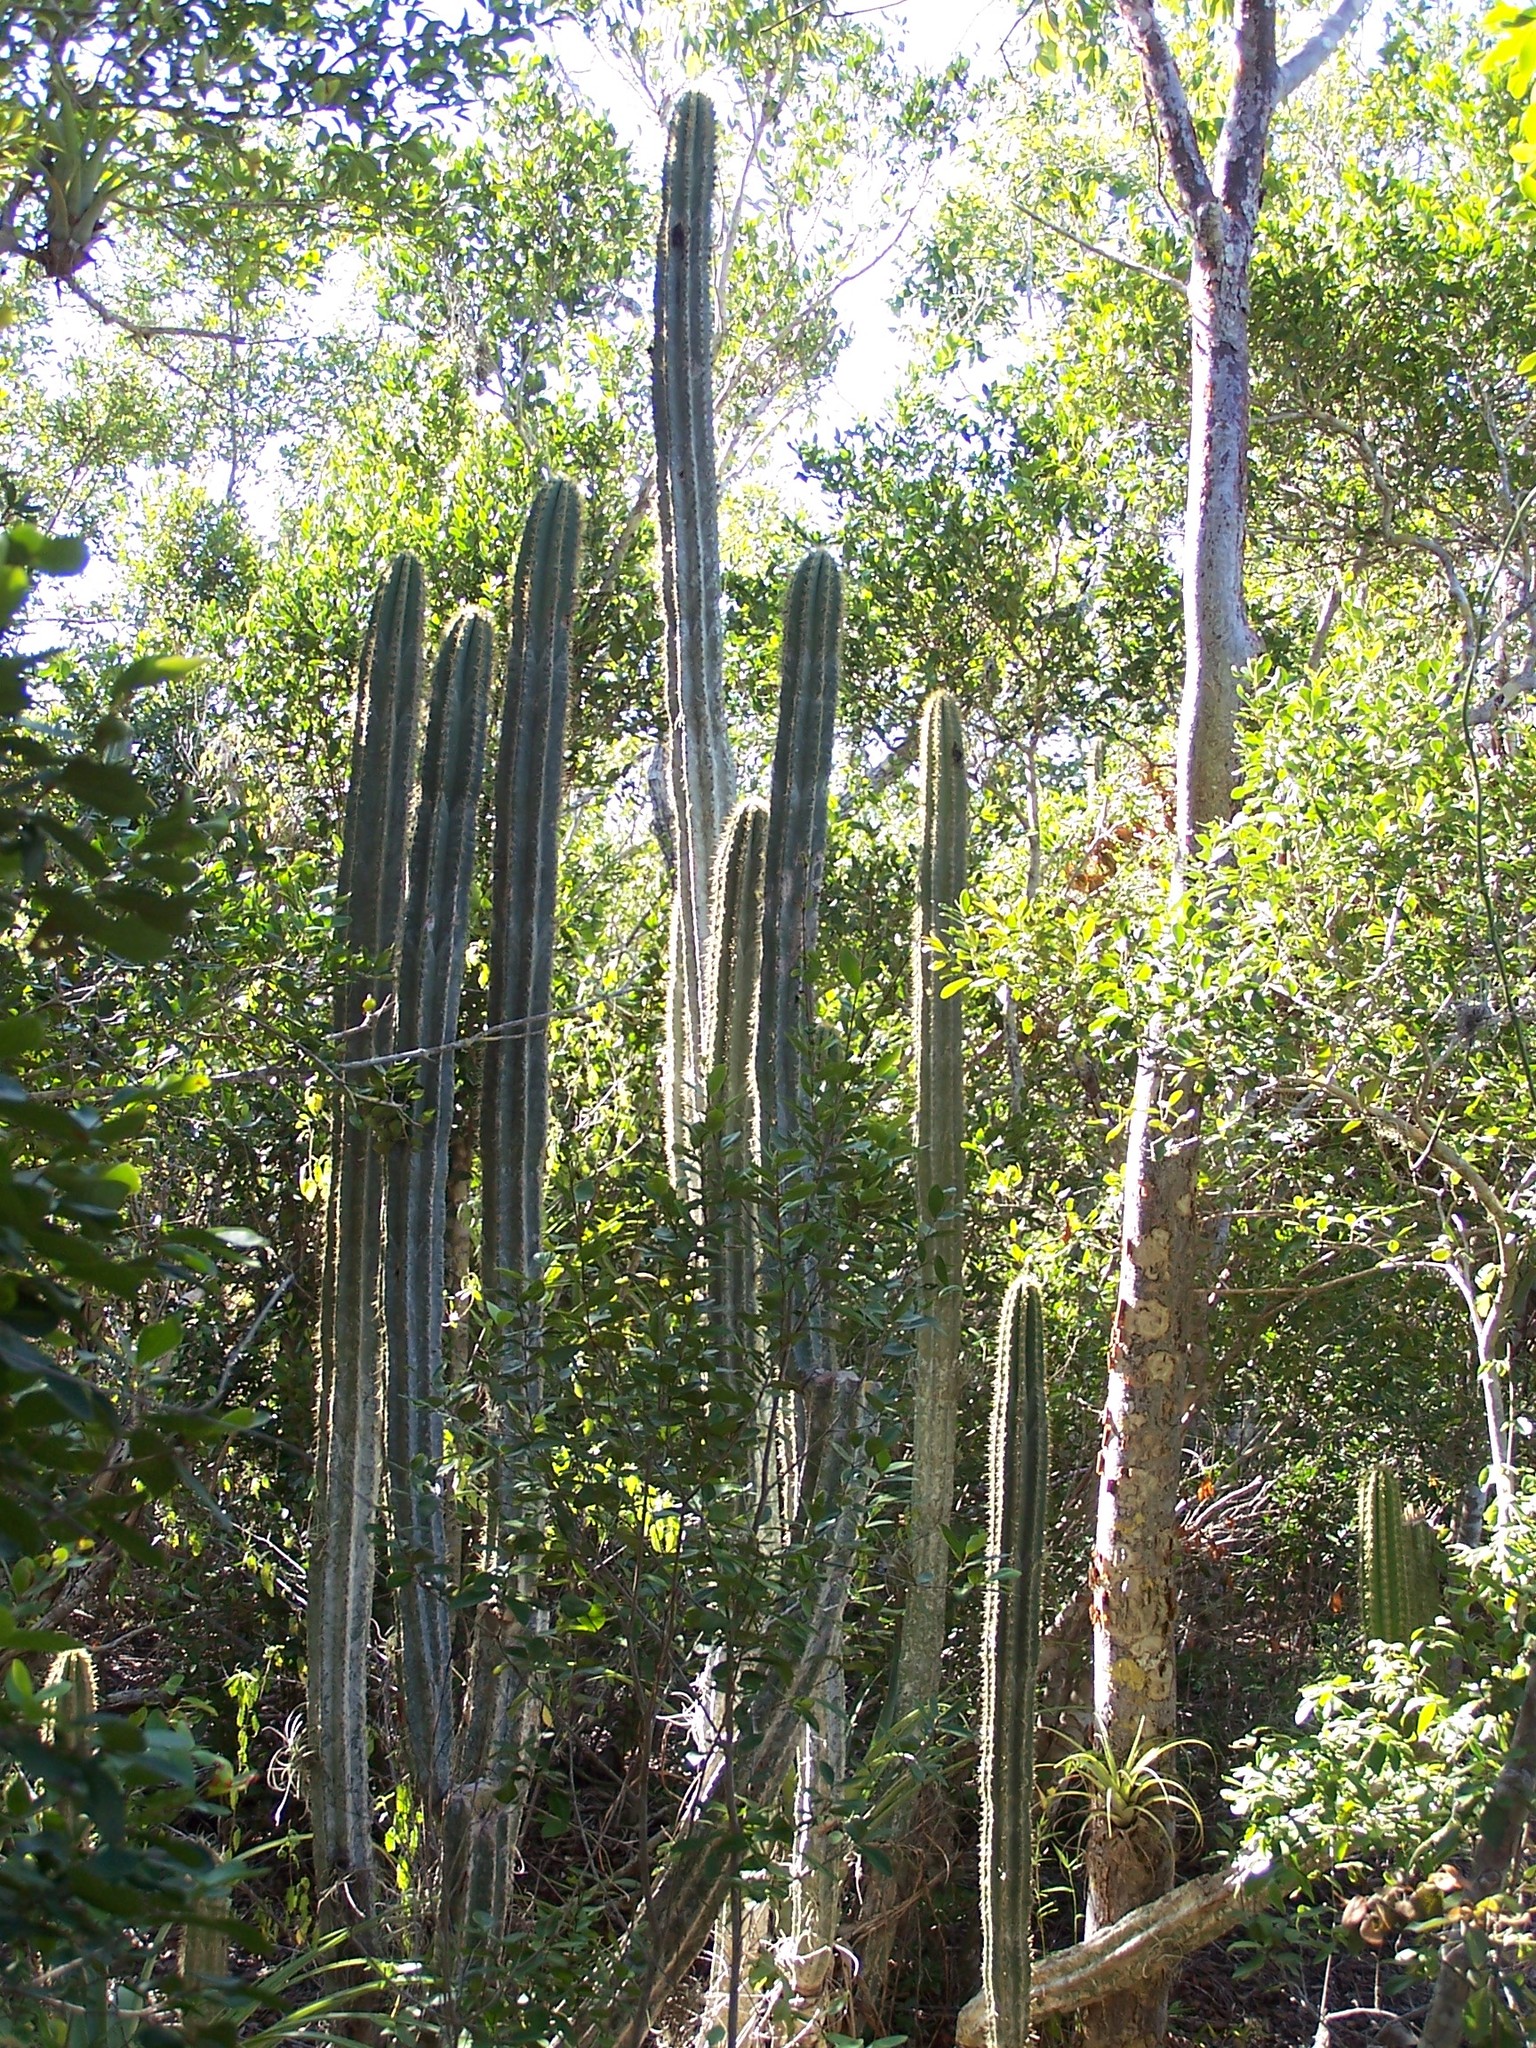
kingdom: Plantae
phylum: Tracheophyta
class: Magnoliopsida
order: Caryophyllales
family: Cactaceae
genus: Pilosocereus
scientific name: Pilosocereus robinii
